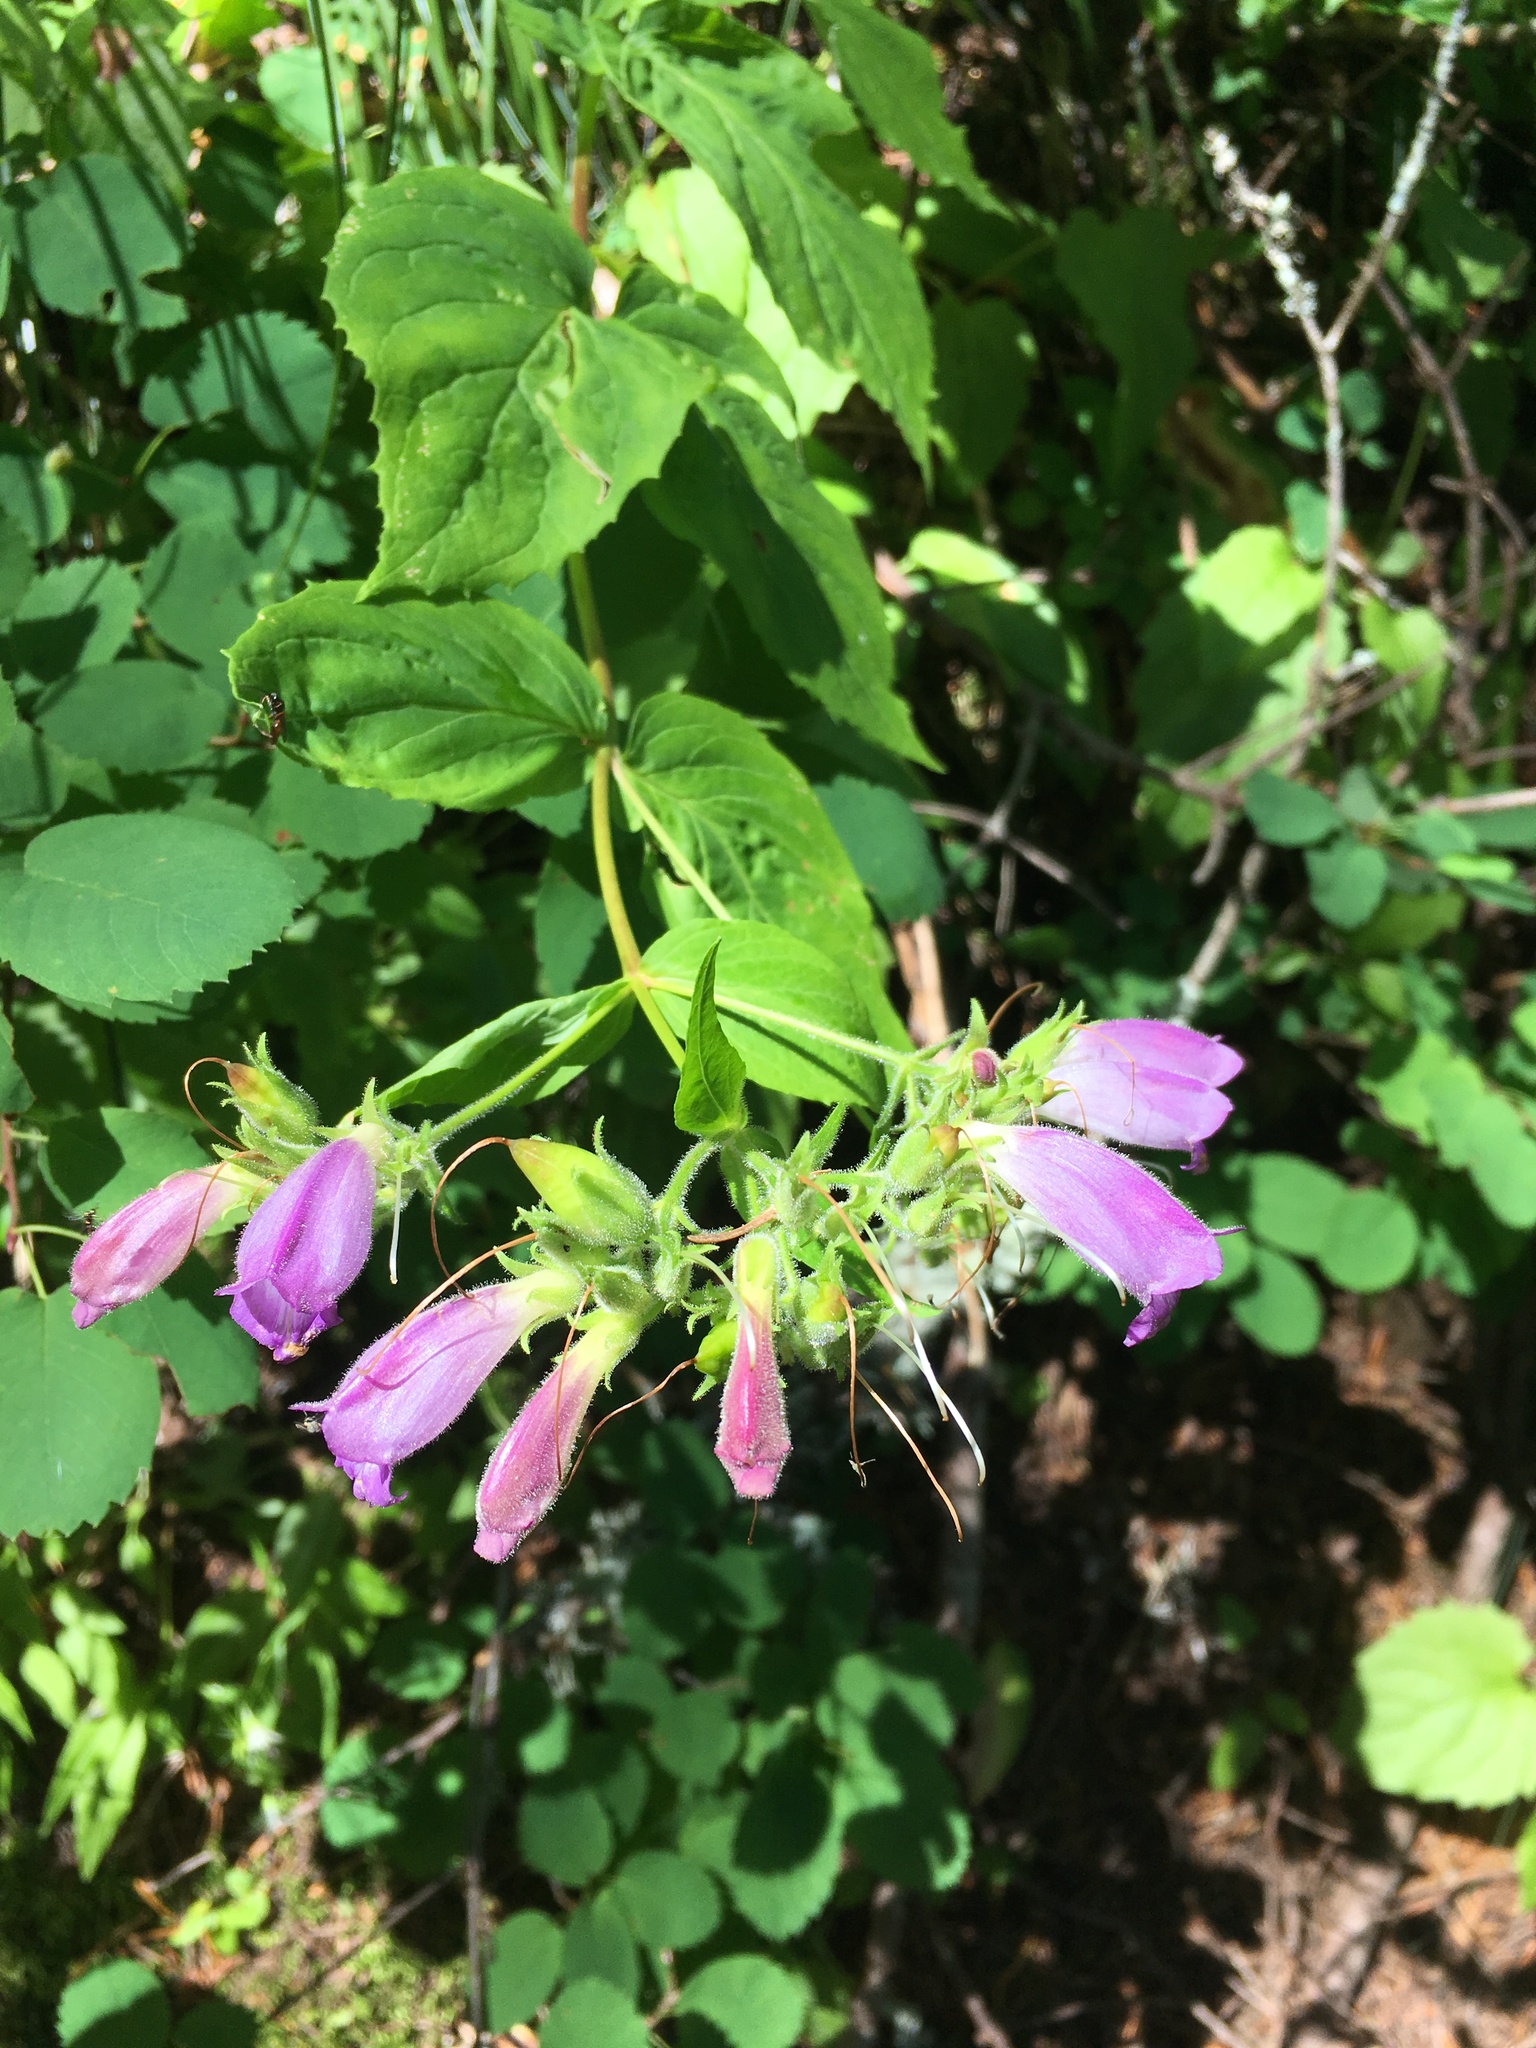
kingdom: Plantae
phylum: Tracheophyta
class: Magnoliopsida
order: Lamiales
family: Plantaginaceae
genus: Nothochelone
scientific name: Nothochelone nemorosa
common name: Woodland beardtongue
